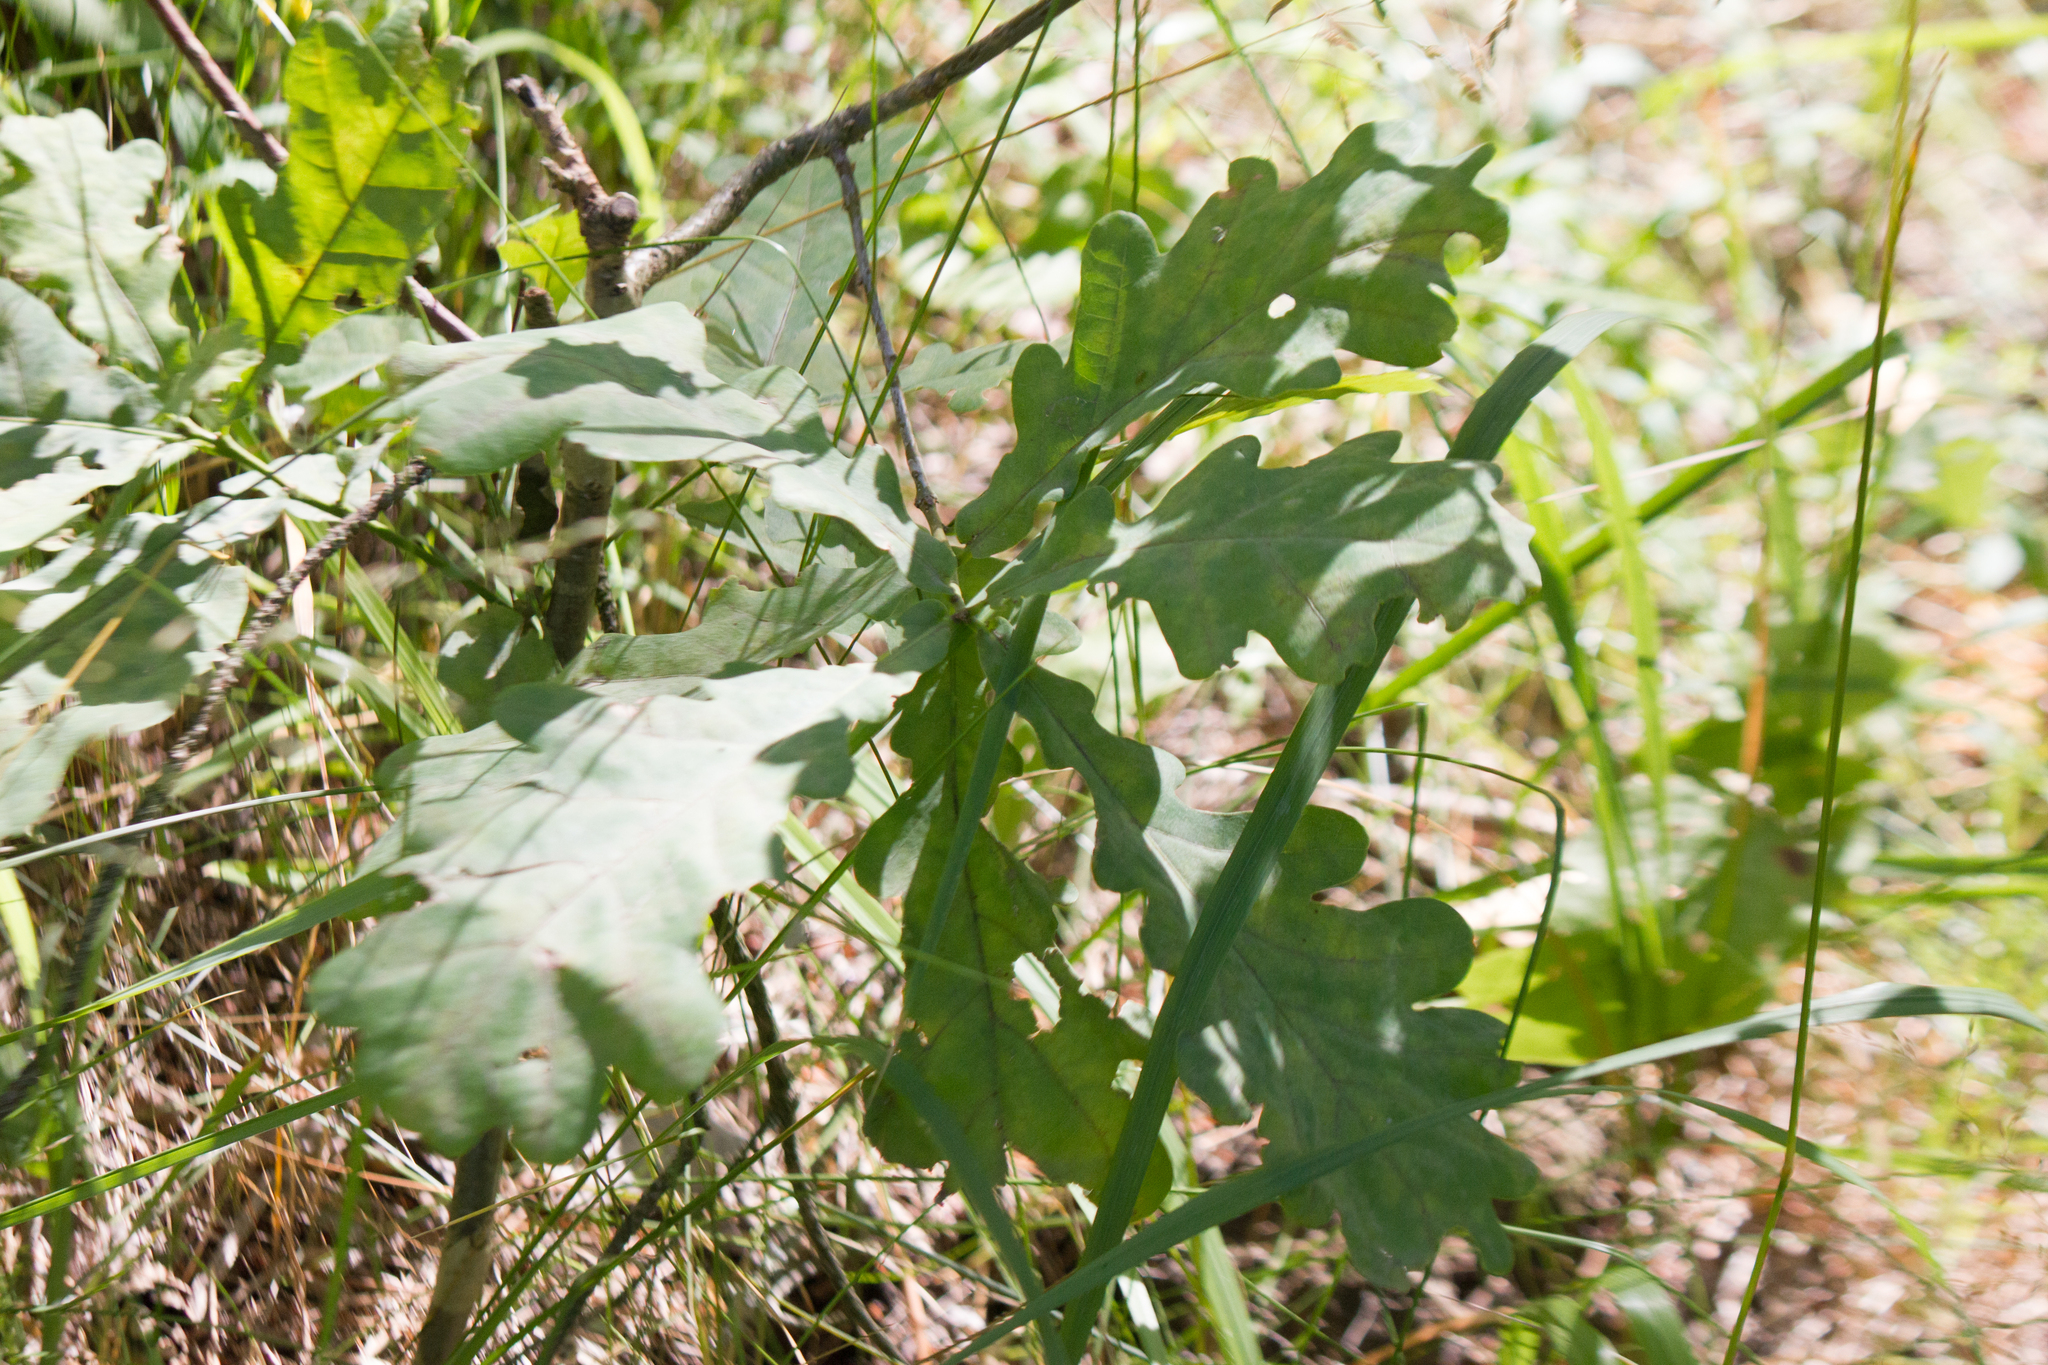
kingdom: Plantae
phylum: Tracheophyta
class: Magnoliopsida
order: Fagales
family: Fagaceae
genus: Quercus
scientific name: Quercus robur
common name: Pedunculate oak
